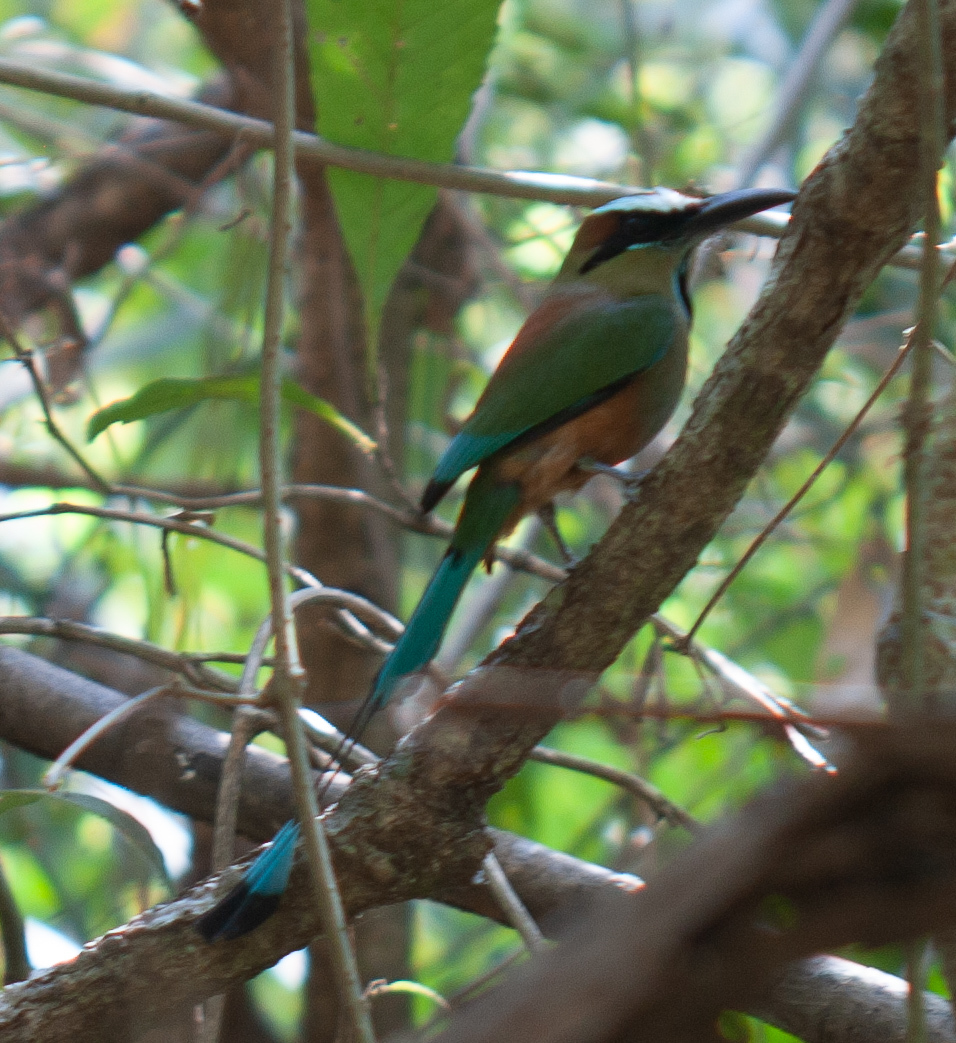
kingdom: Animalia
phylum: Chordata
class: Aves
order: Coraciiformes
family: Momotidae
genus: Eumomota
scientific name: Eumomota superciliosa
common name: Turquoise-browed motmot
